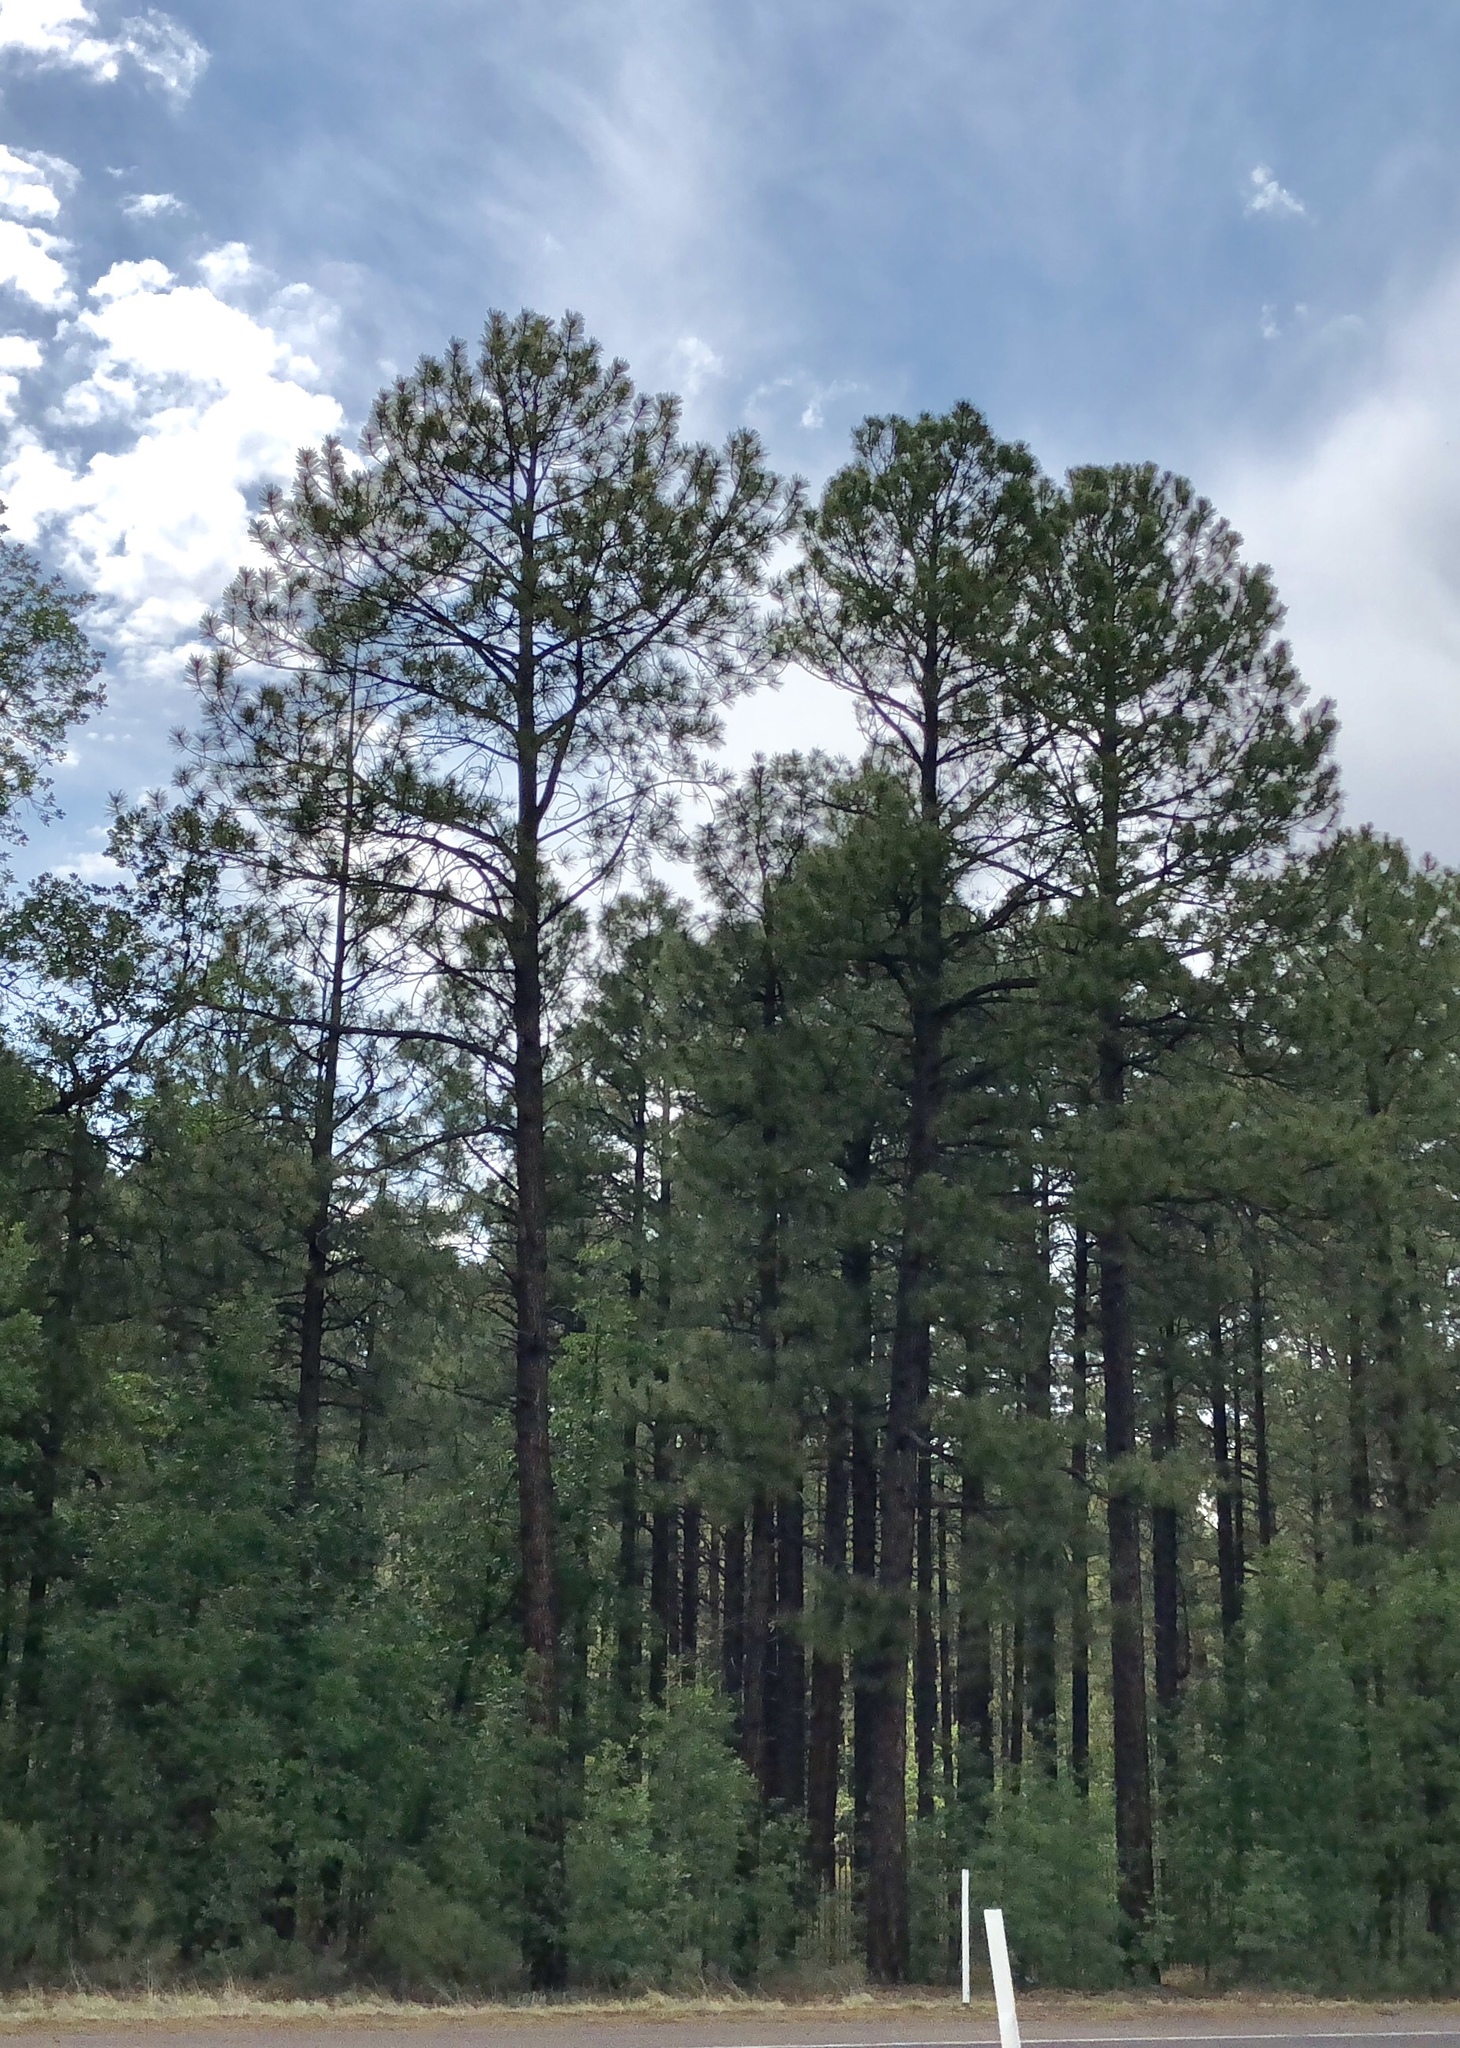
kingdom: Plantae
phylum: Tracheophyta
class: Pinopsida
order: Pinales
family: Pinaceae
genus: Pinus
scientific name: Pinus ponderosa
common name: Western yellow-pine
